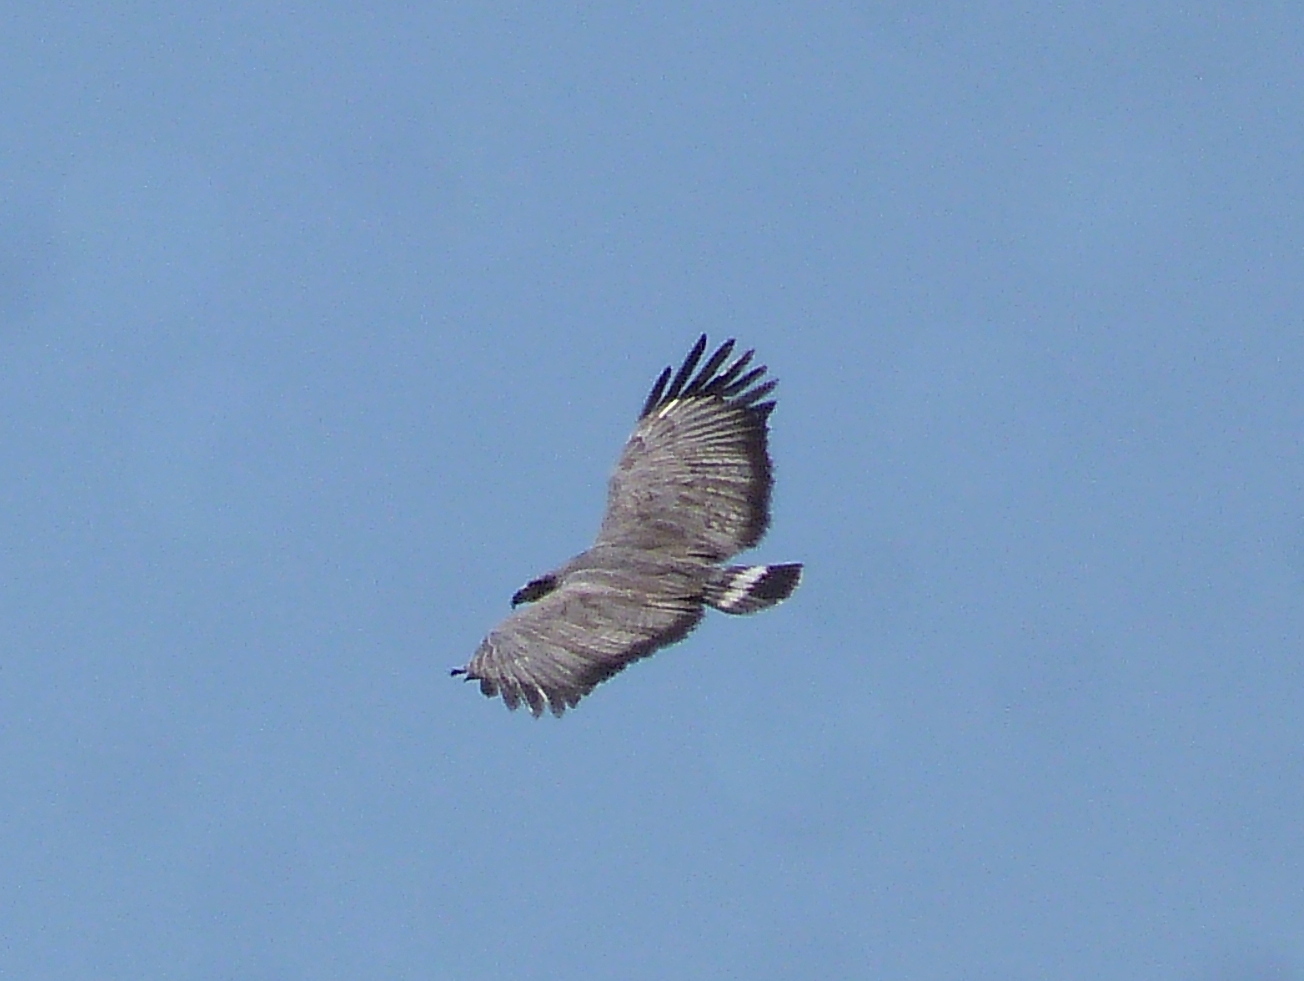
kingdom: Animalia
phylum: Chordata
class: Aves
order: Accipitriformes
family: Accipitridae
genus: Harpyhaliaetus
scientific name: Harpyhaliaetus coronatus
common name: Crowned solitary eagle
